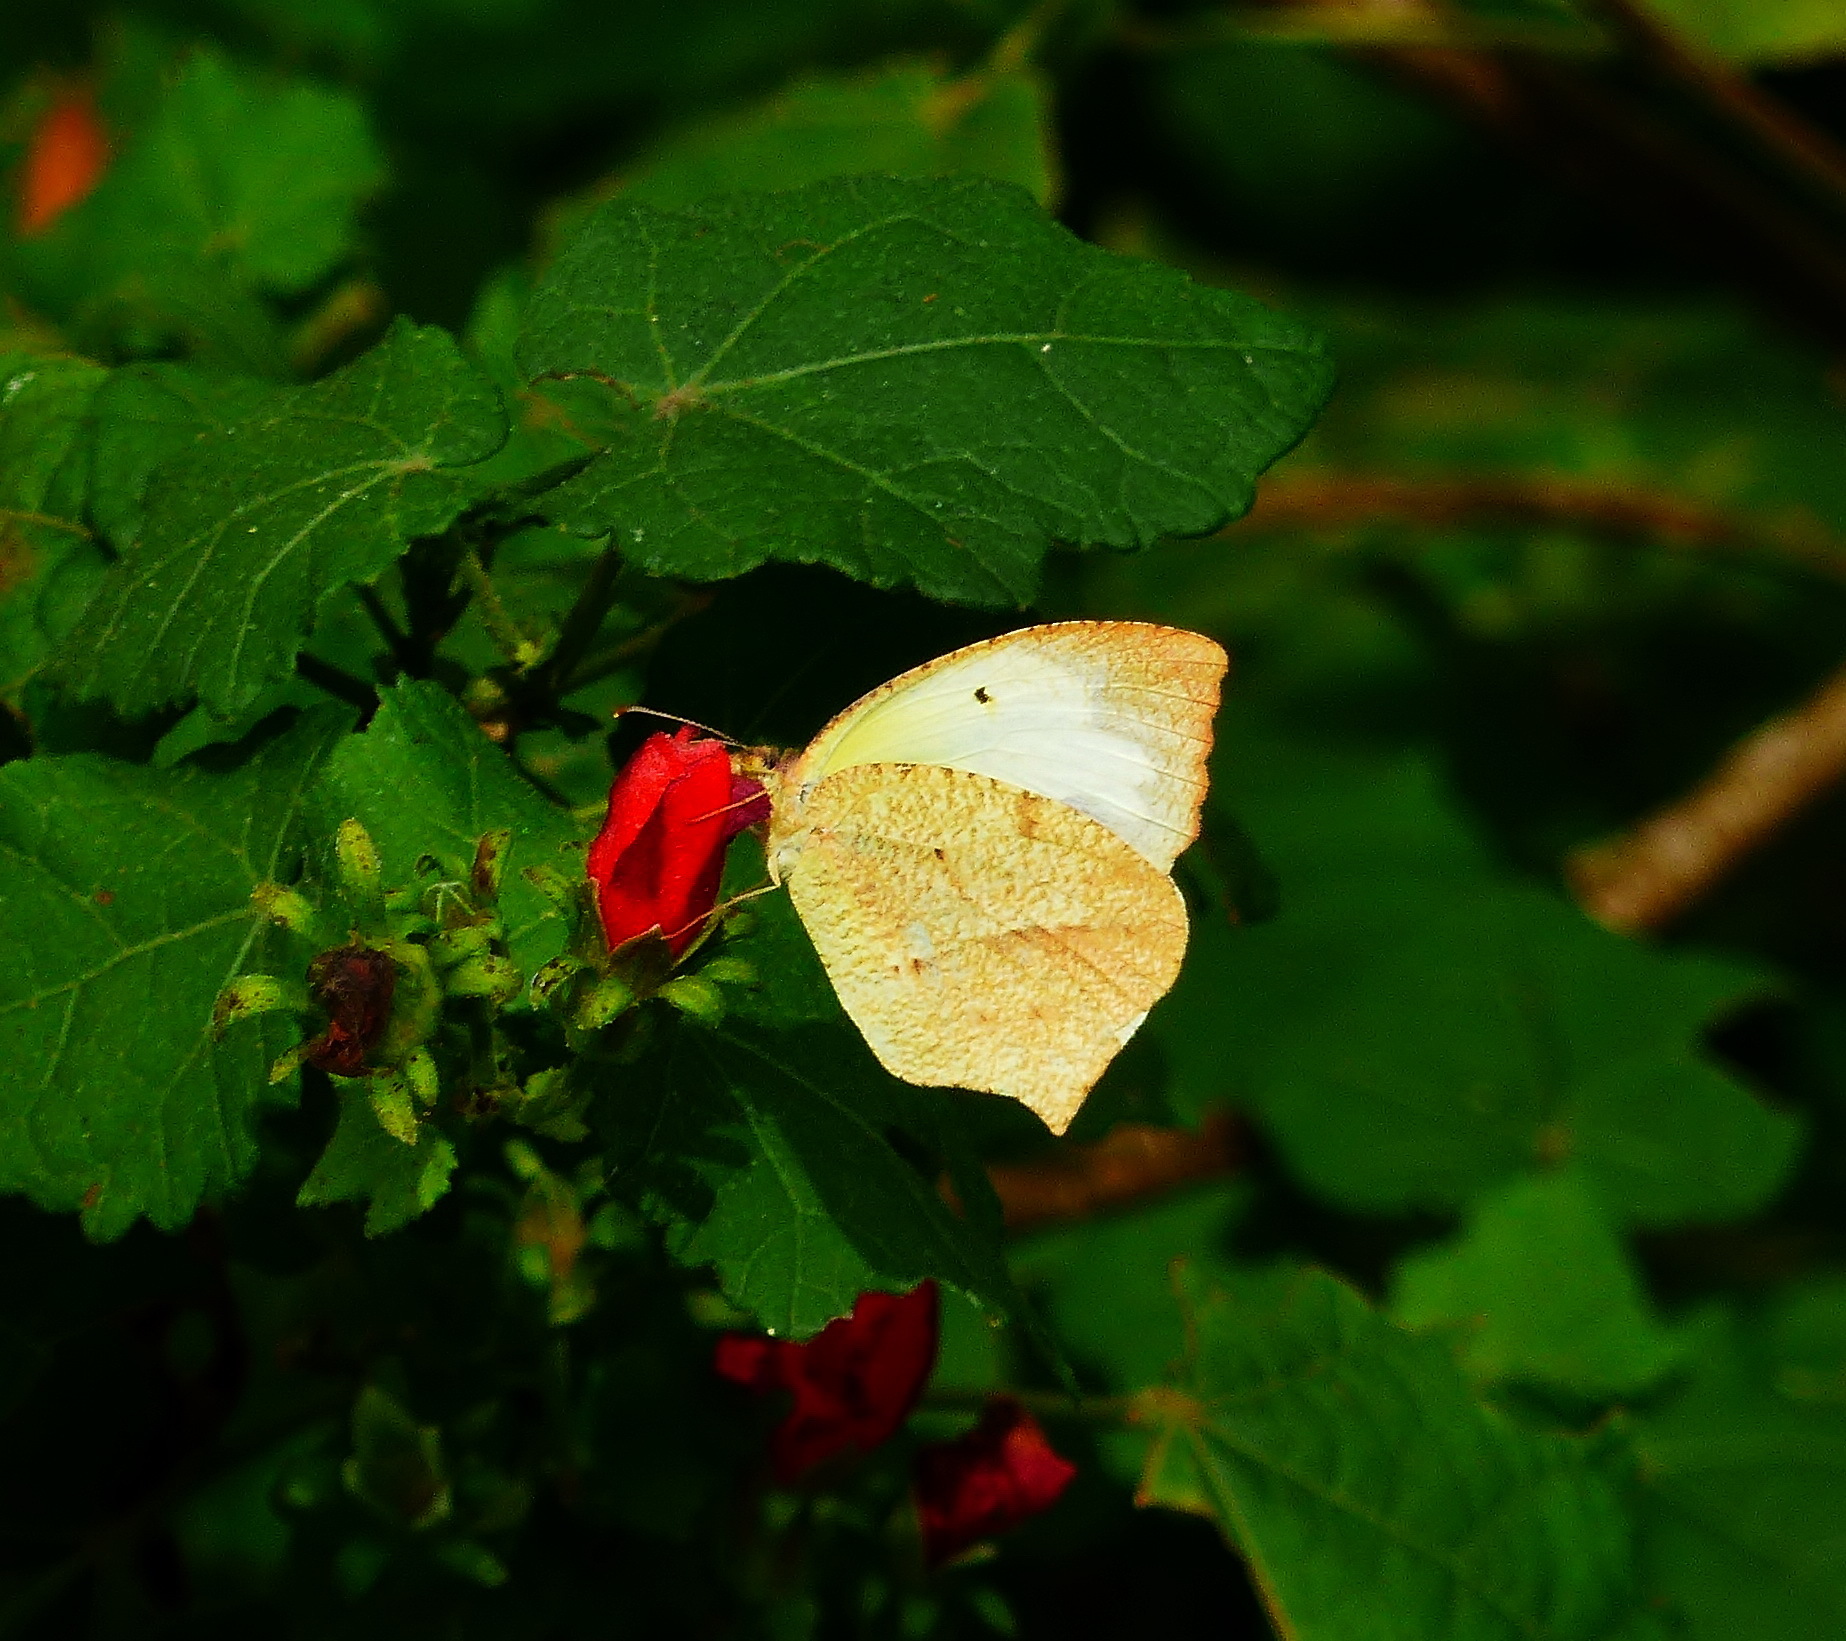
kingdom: Animalia
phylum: Arthropoda
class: Insecta
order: Lepidoptera
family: Pieridae
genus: Abaeis
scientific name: Abaeis mexicana
